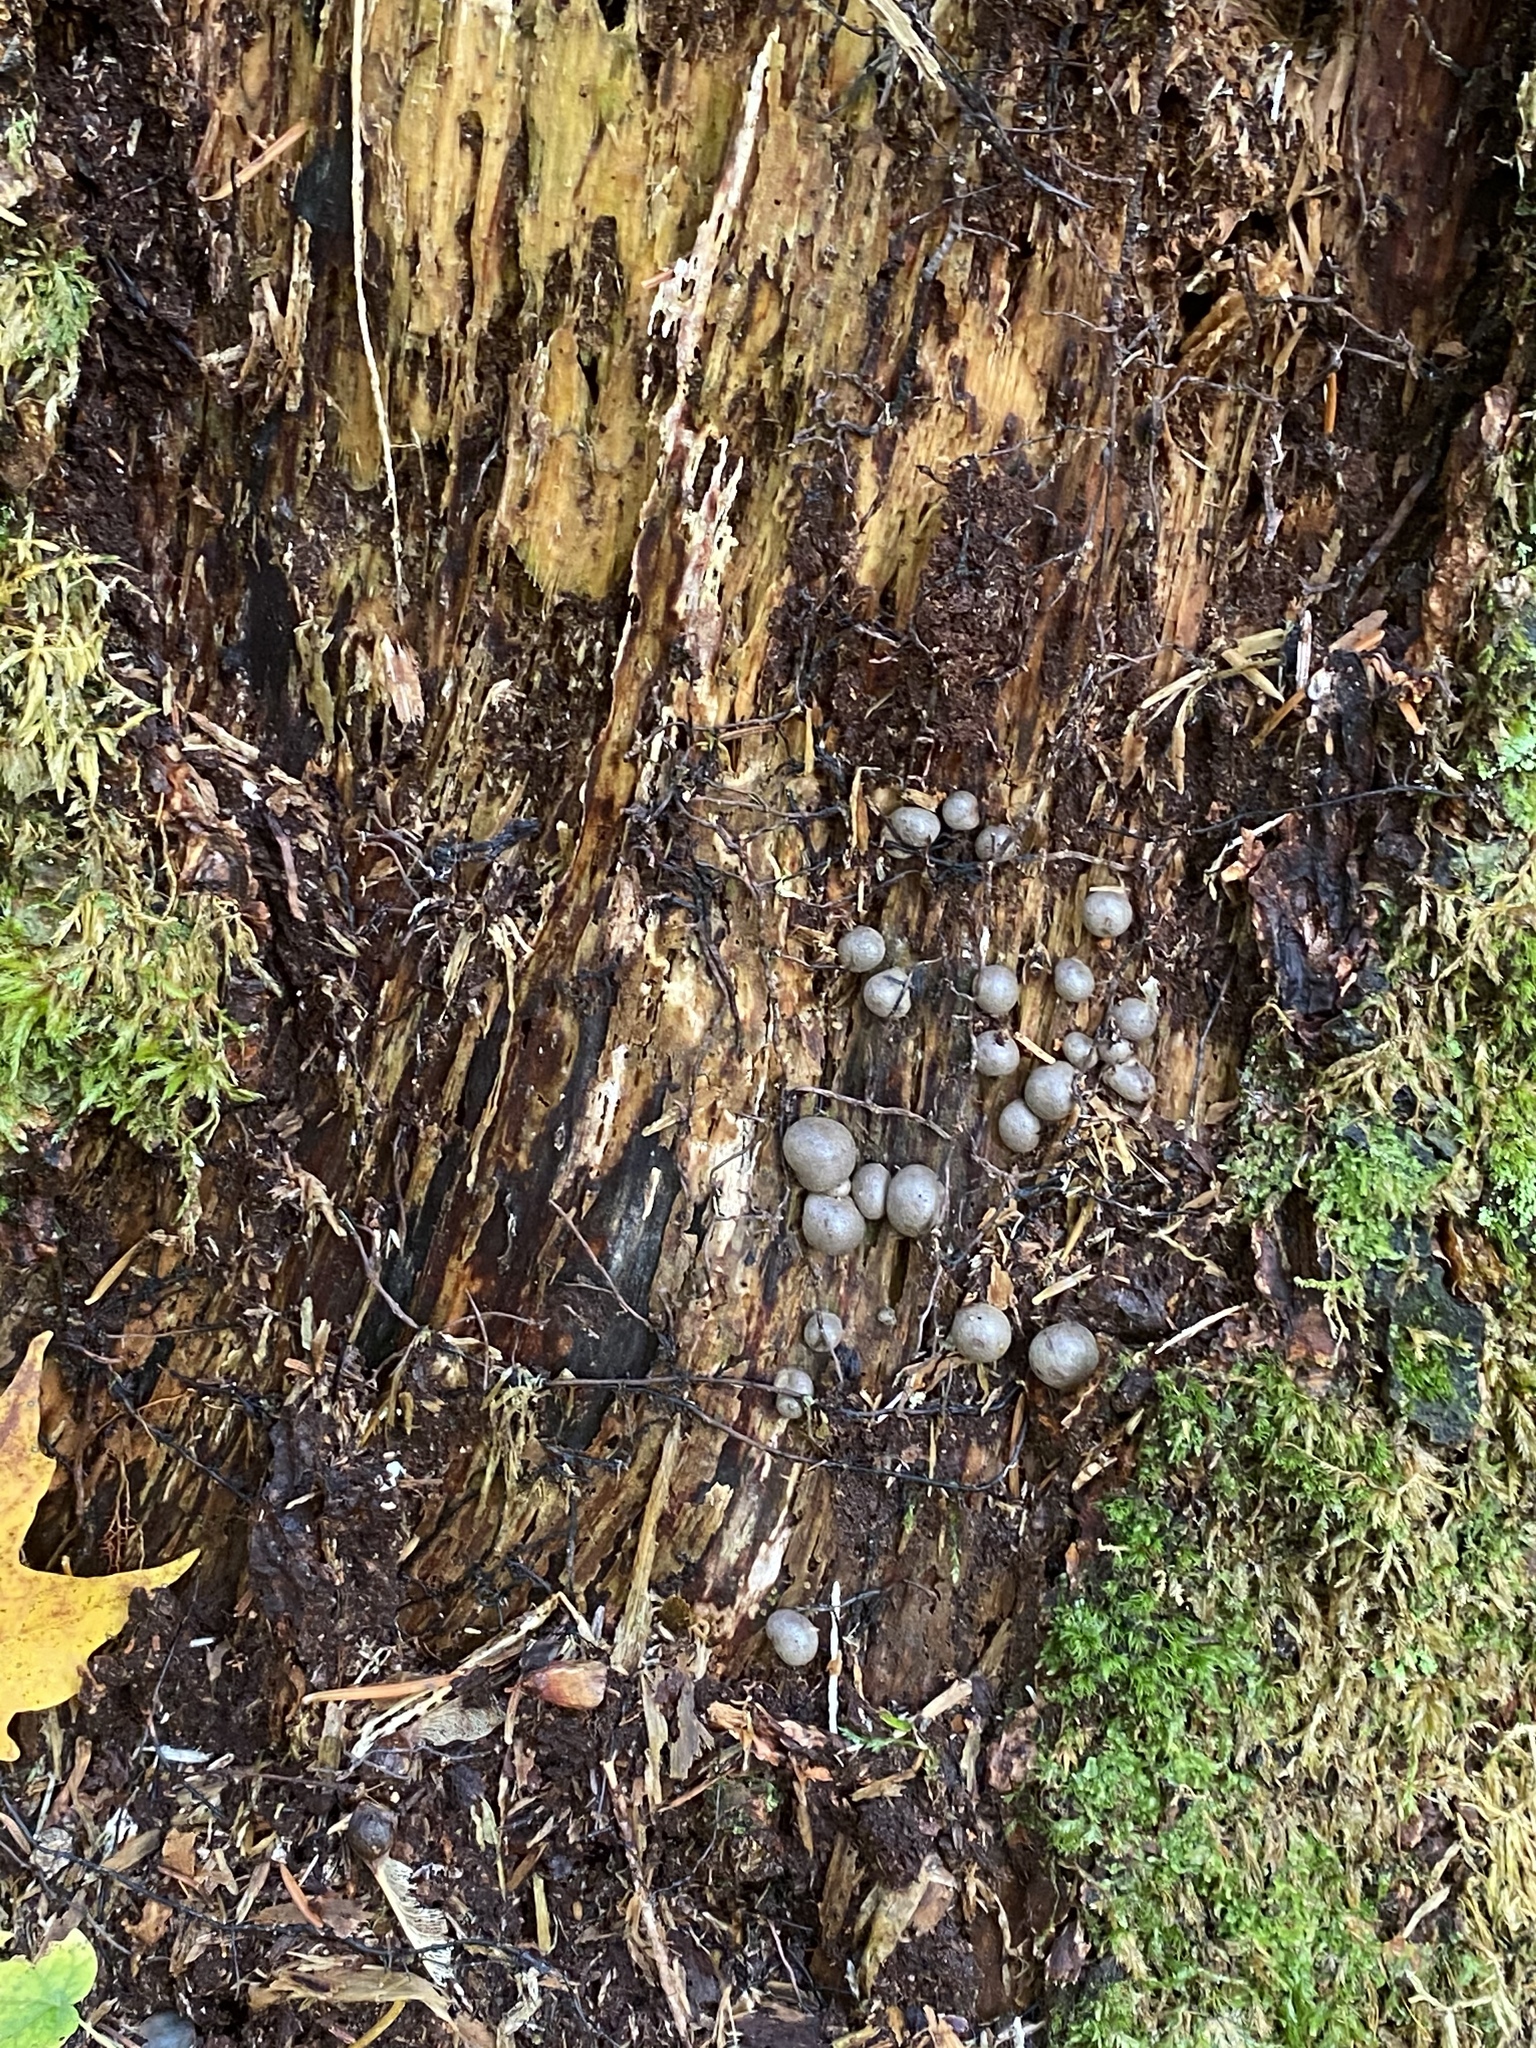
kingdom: Protozoa
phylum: Mycetozoa
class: Myxomycetes
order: Cribrariales
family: Tubiferaceae
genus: Lycogala
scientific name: Lycogala epidendrum
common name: Wolf's milk
